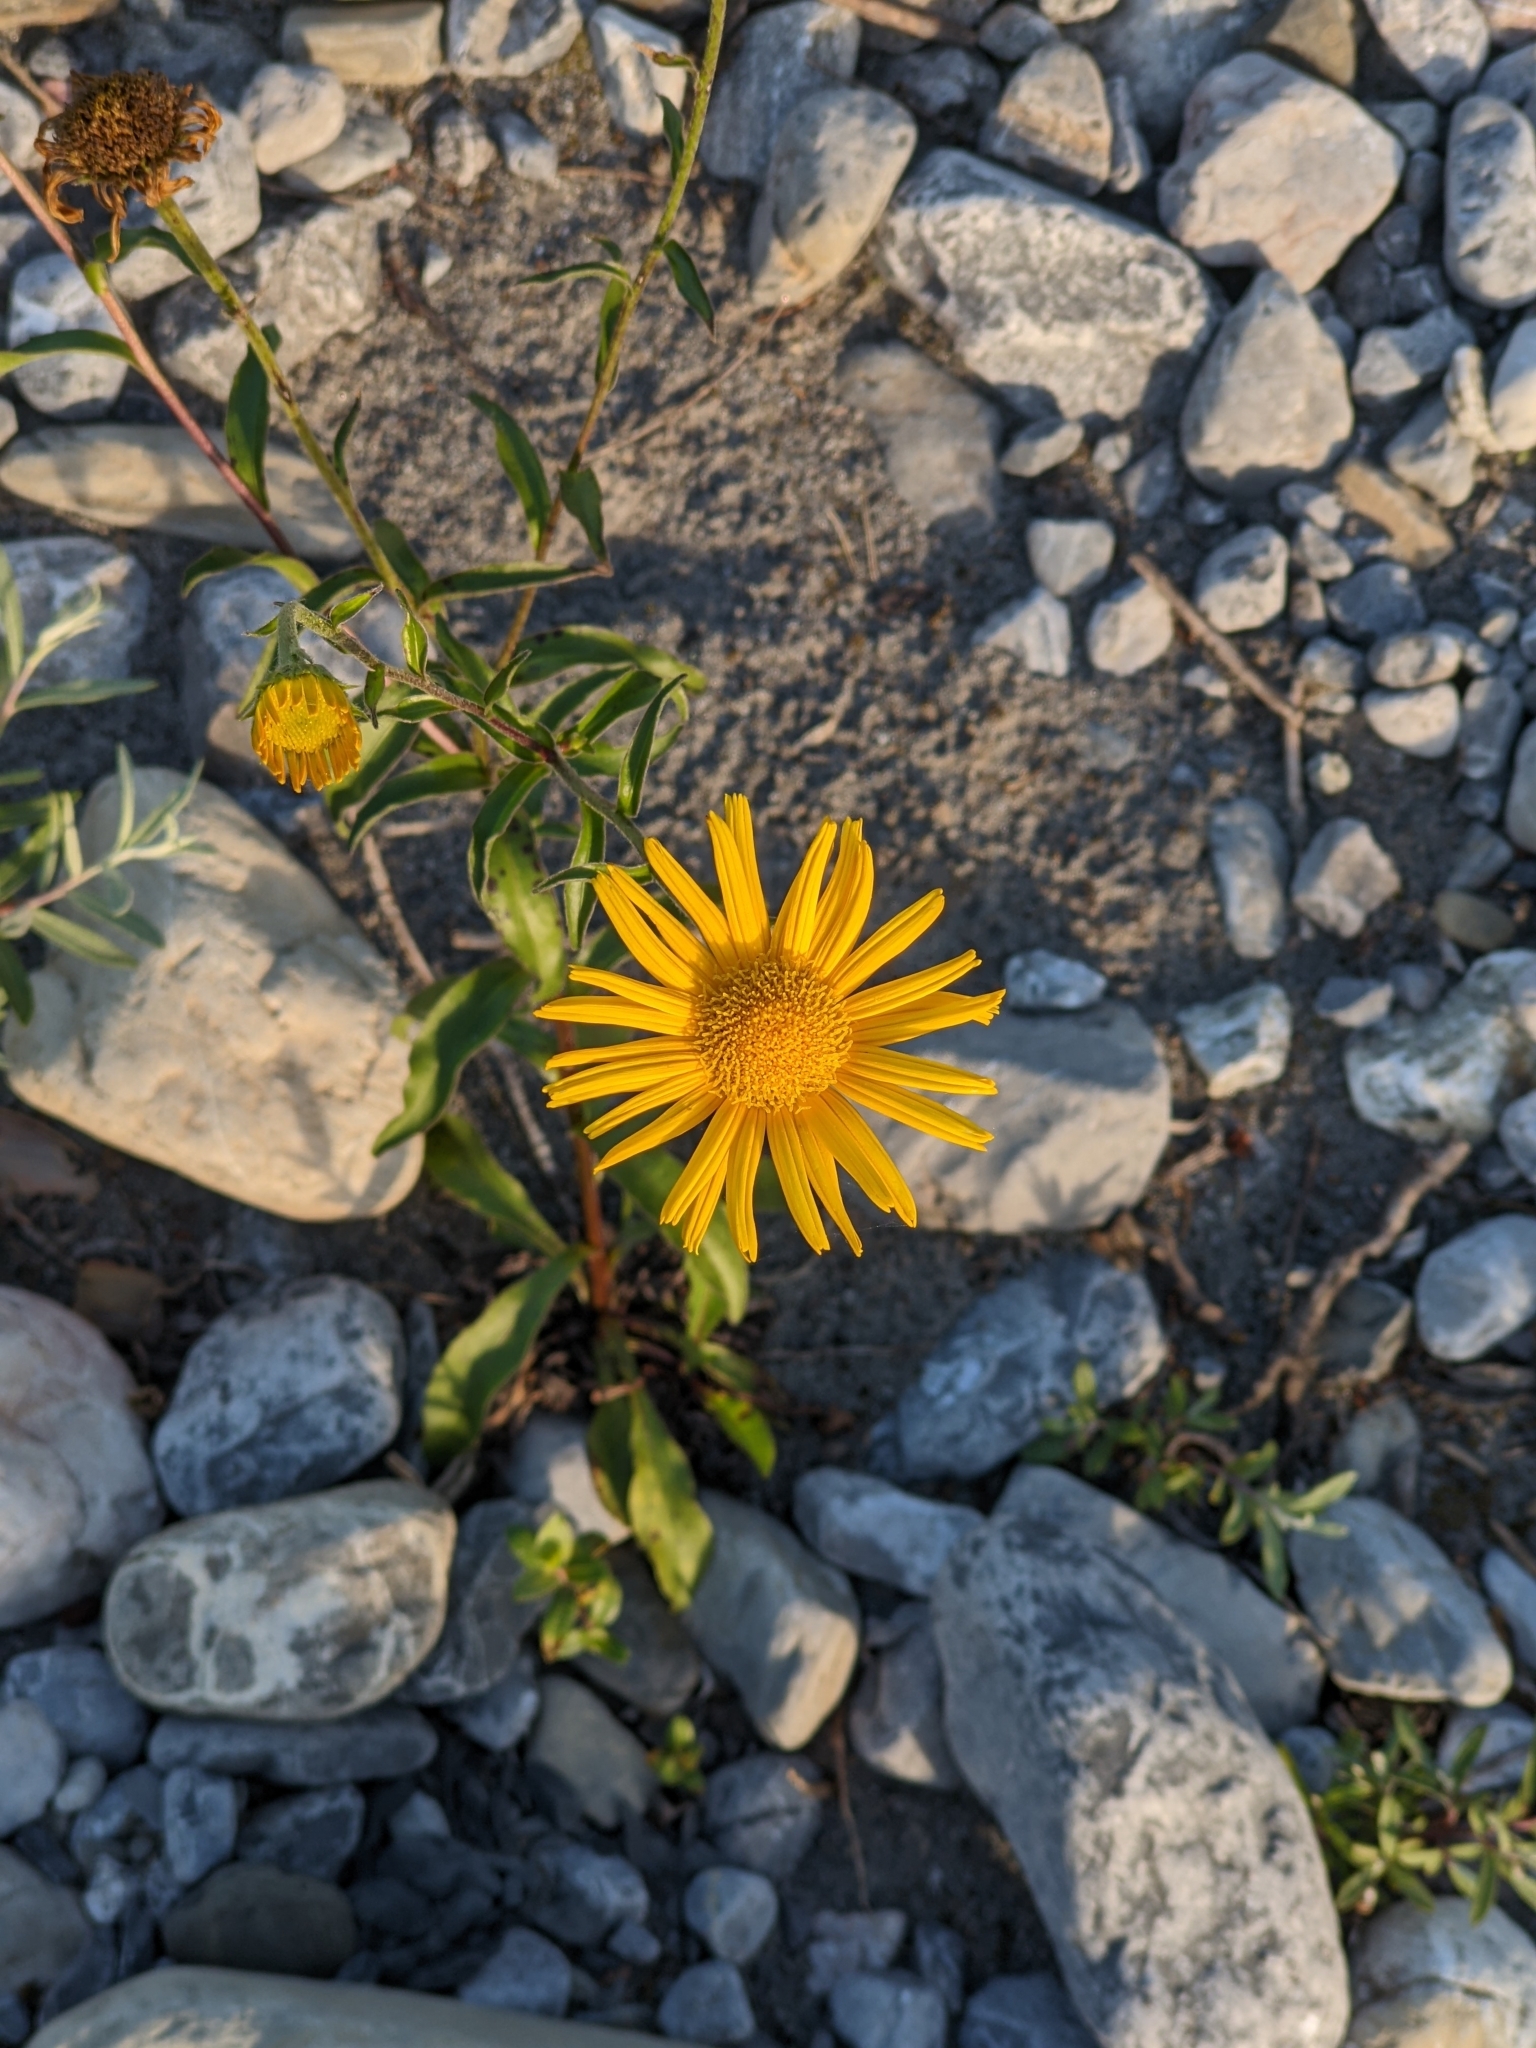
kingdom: Plantae
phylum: Tracheophyta
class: Magnoliopsida
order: Asterales
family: Asteraceae
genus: Buphthalmum
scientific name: Buphthalmum salicifolium
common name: Willow-leaved yellow-oxeye
